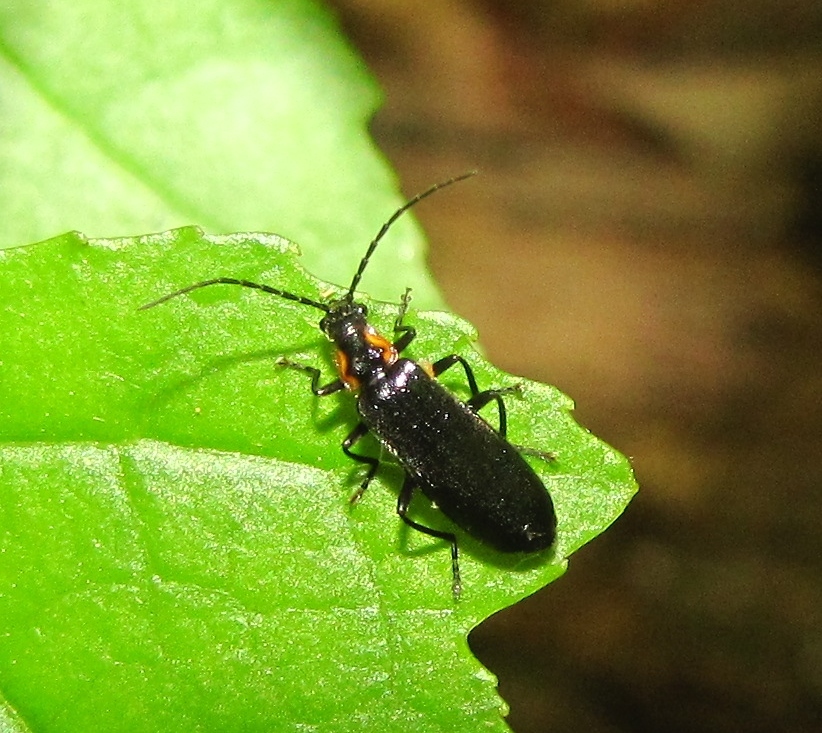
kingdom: Animalia
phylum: Arthropoda
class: Insecta
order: Coleoptera
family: Cantharidae
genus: Rhagonycha
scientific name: Rhagonycha angulata
